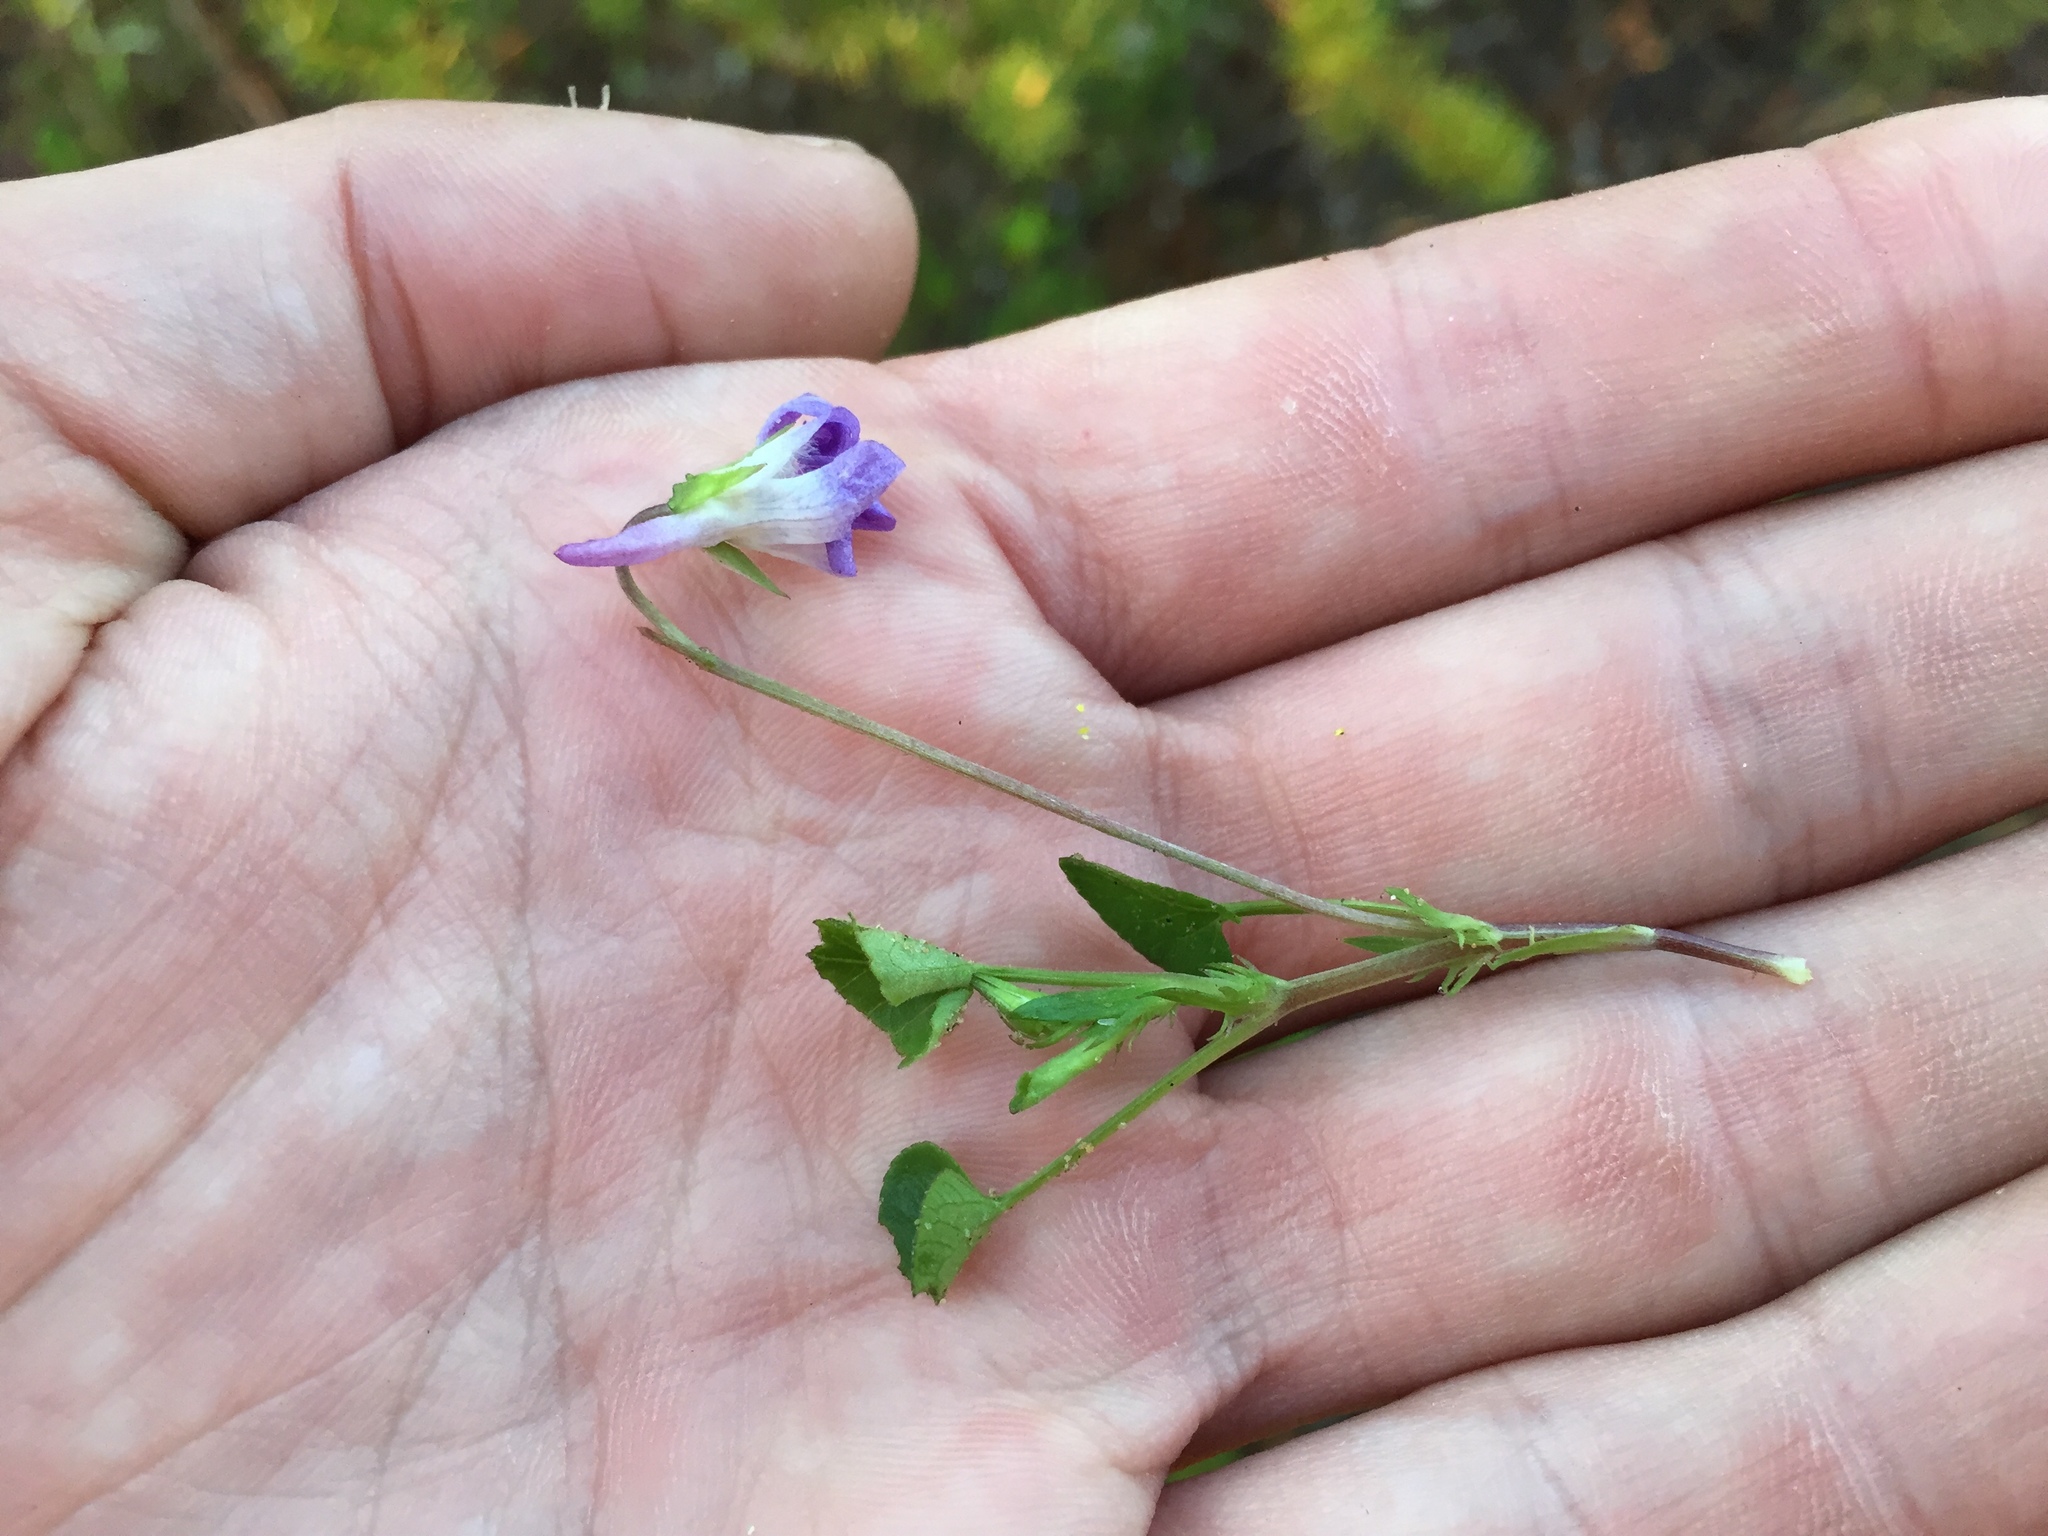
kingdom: Plantae
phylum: Tracheophyta
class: Magnoliopsida
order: Malpighiales
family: Violaceae
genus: Viola
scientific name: Viola adunca
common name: Sand violet
